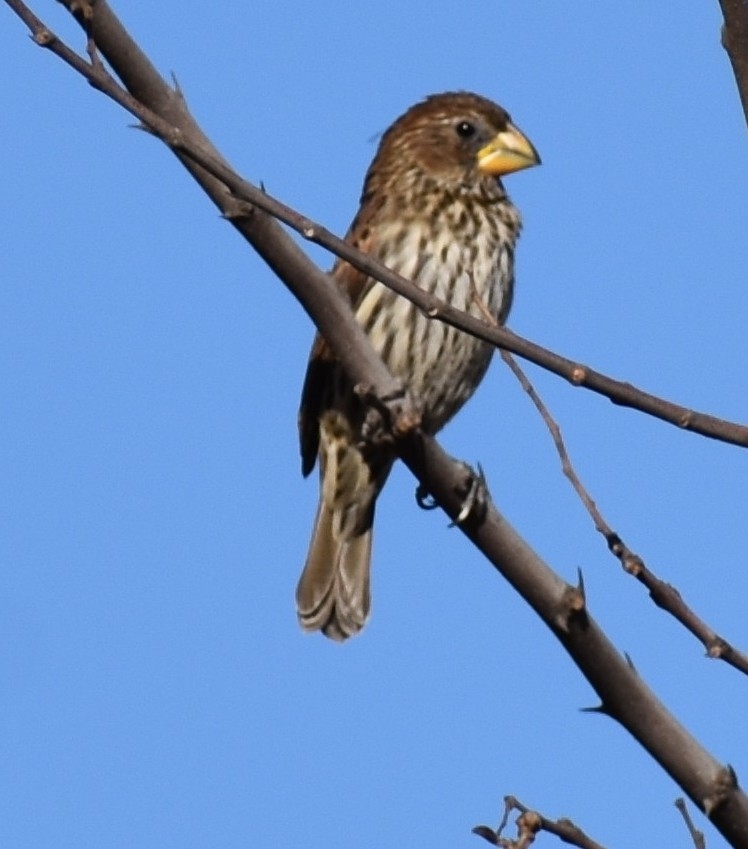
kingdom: Animalia
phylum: Chordata
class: Aves
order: Passeriformes
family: Ploceidae
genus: Amblyospiza
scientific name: Amblyospiza albifrons
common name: Thick-billed weaver
